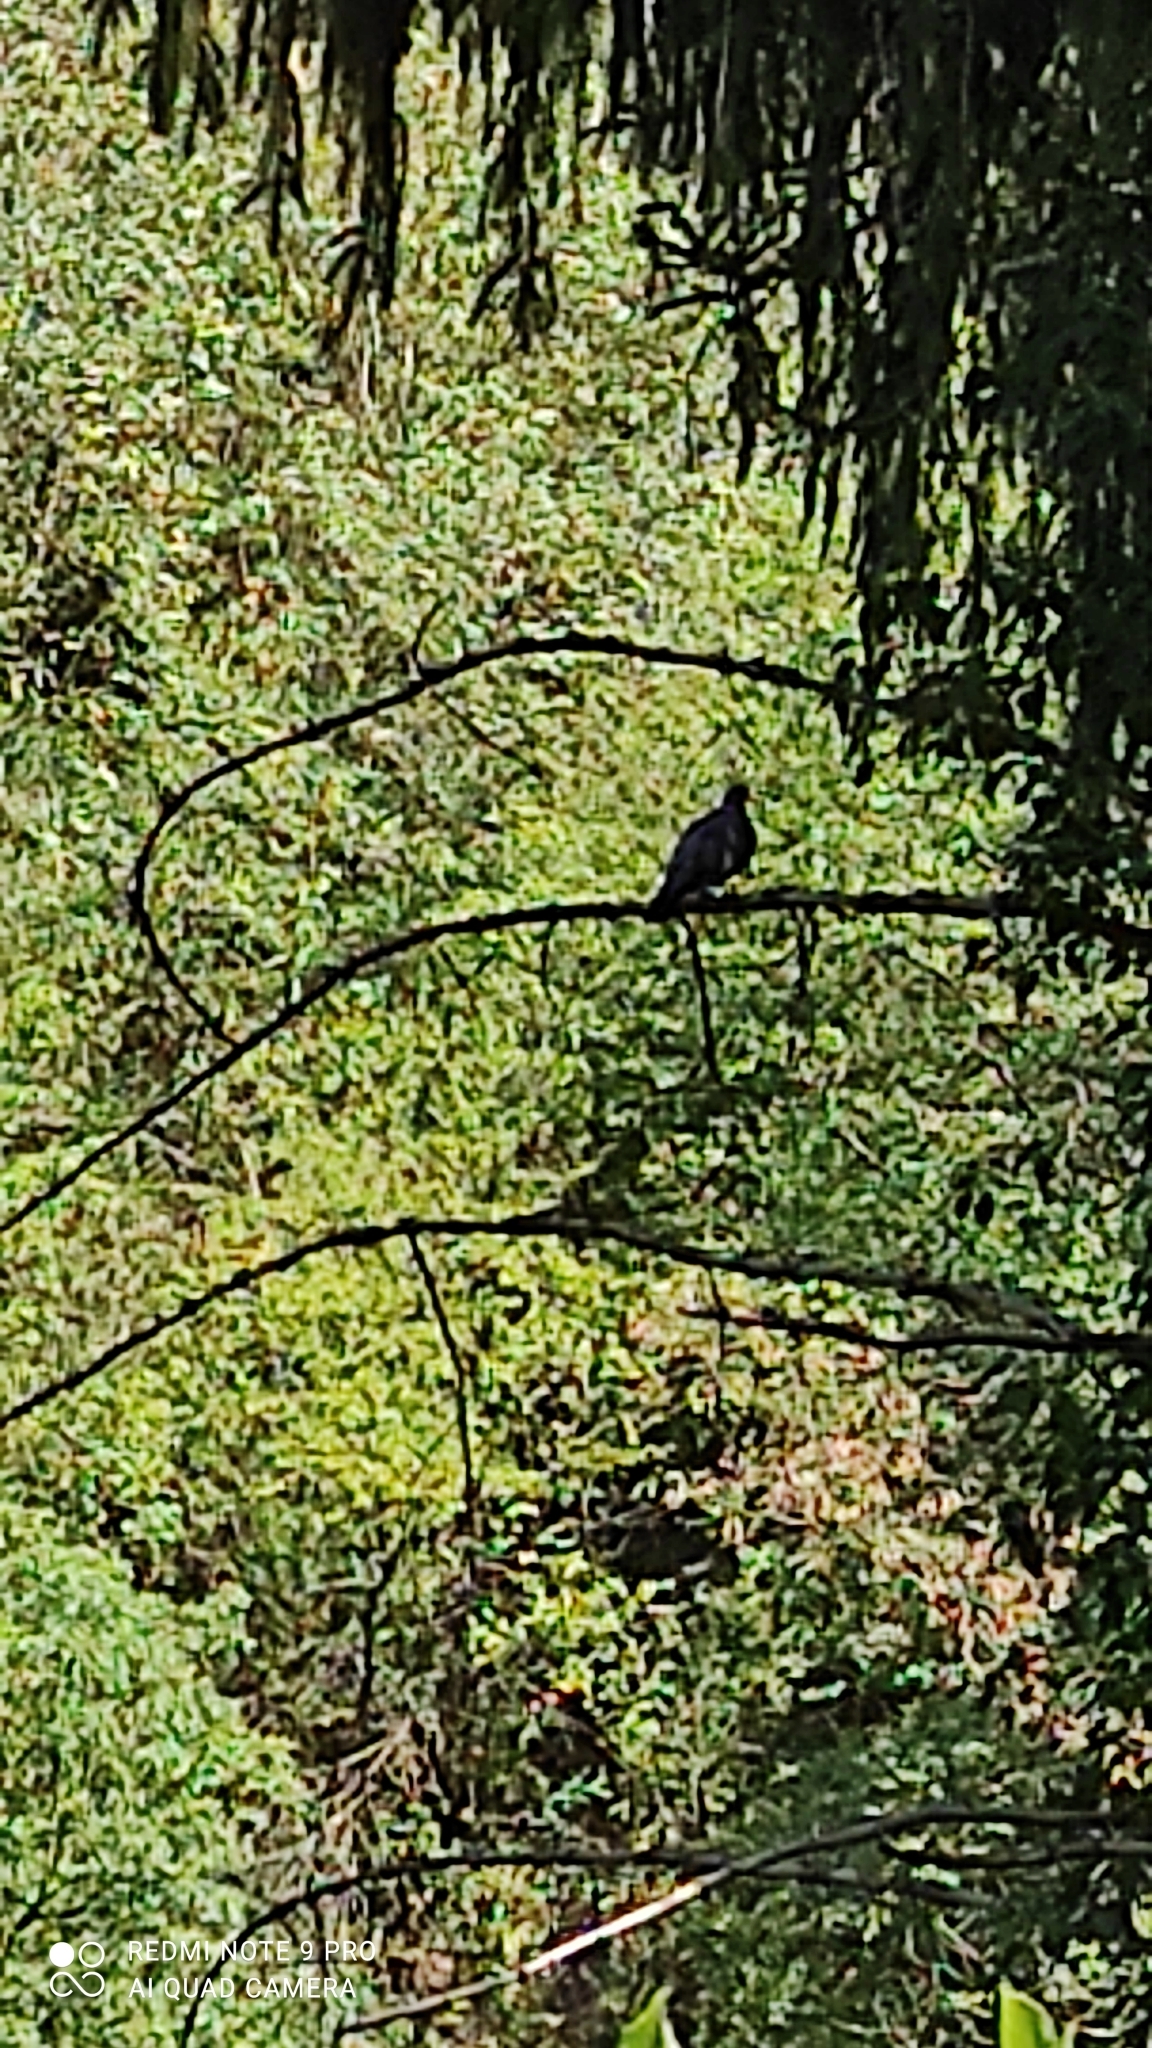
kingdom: Animalia
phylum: Chordata
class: Aves
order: Columbiformes
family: Columbidae
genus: Columba
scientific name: Columba palumbus
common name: Common wood pigeon
